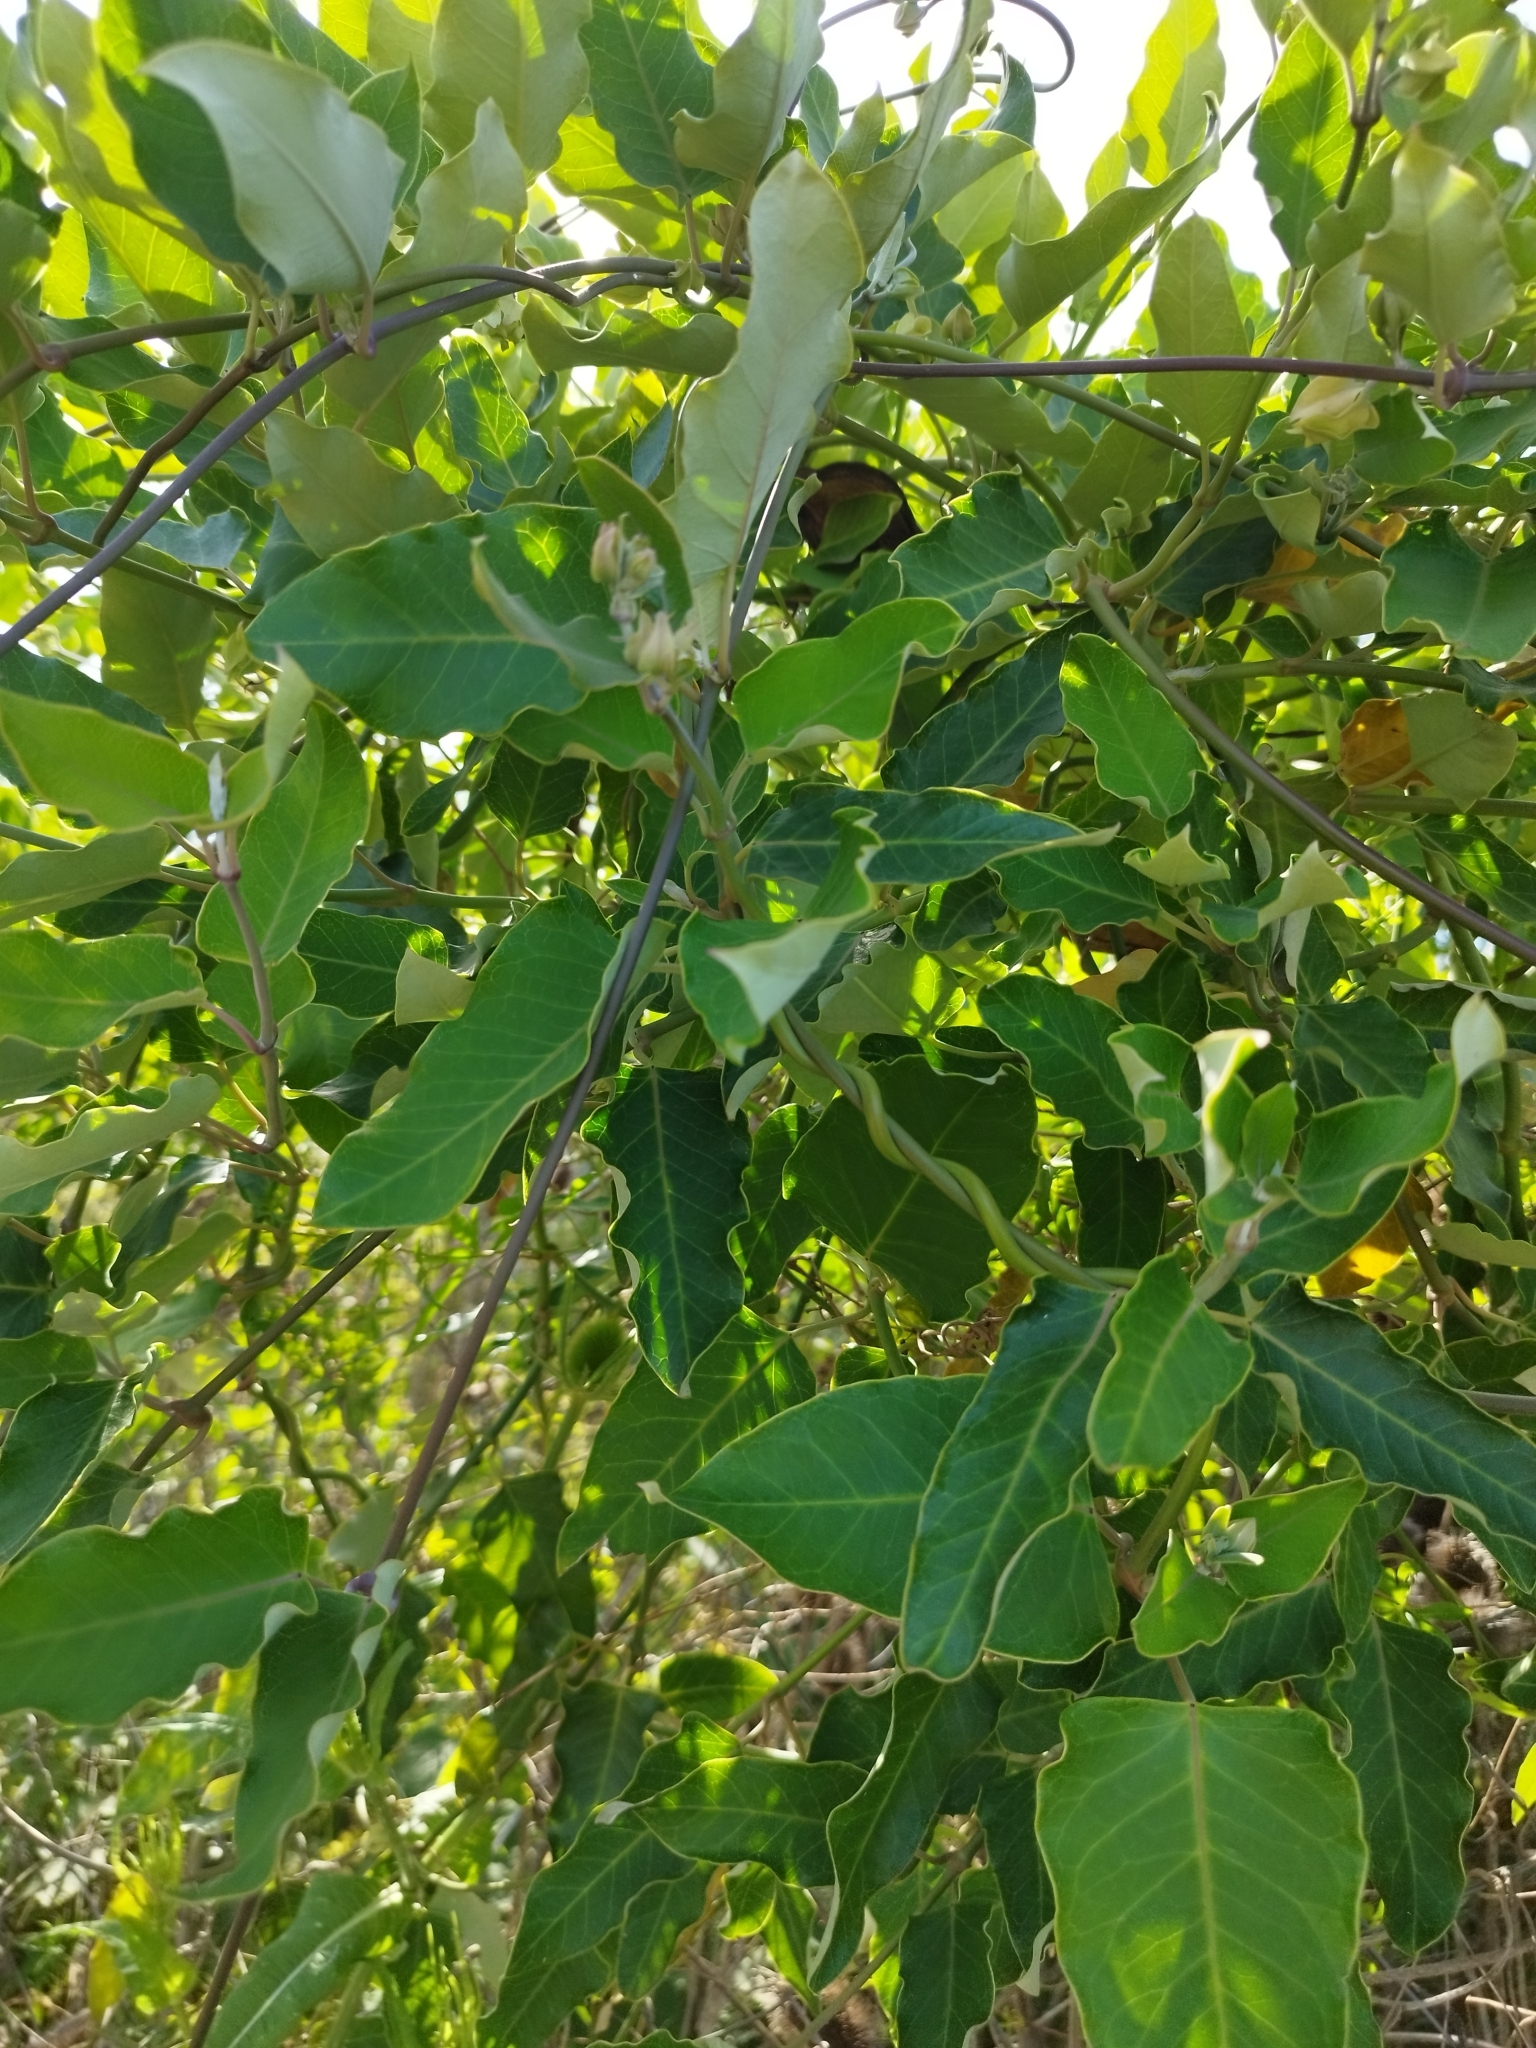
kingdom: Plantae
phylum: Tracheophyta
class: Magnoliopsida
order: Gentianales
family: Apocynaceae
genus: Araujia
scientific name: Araujia sericifera
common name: White bladderflower
